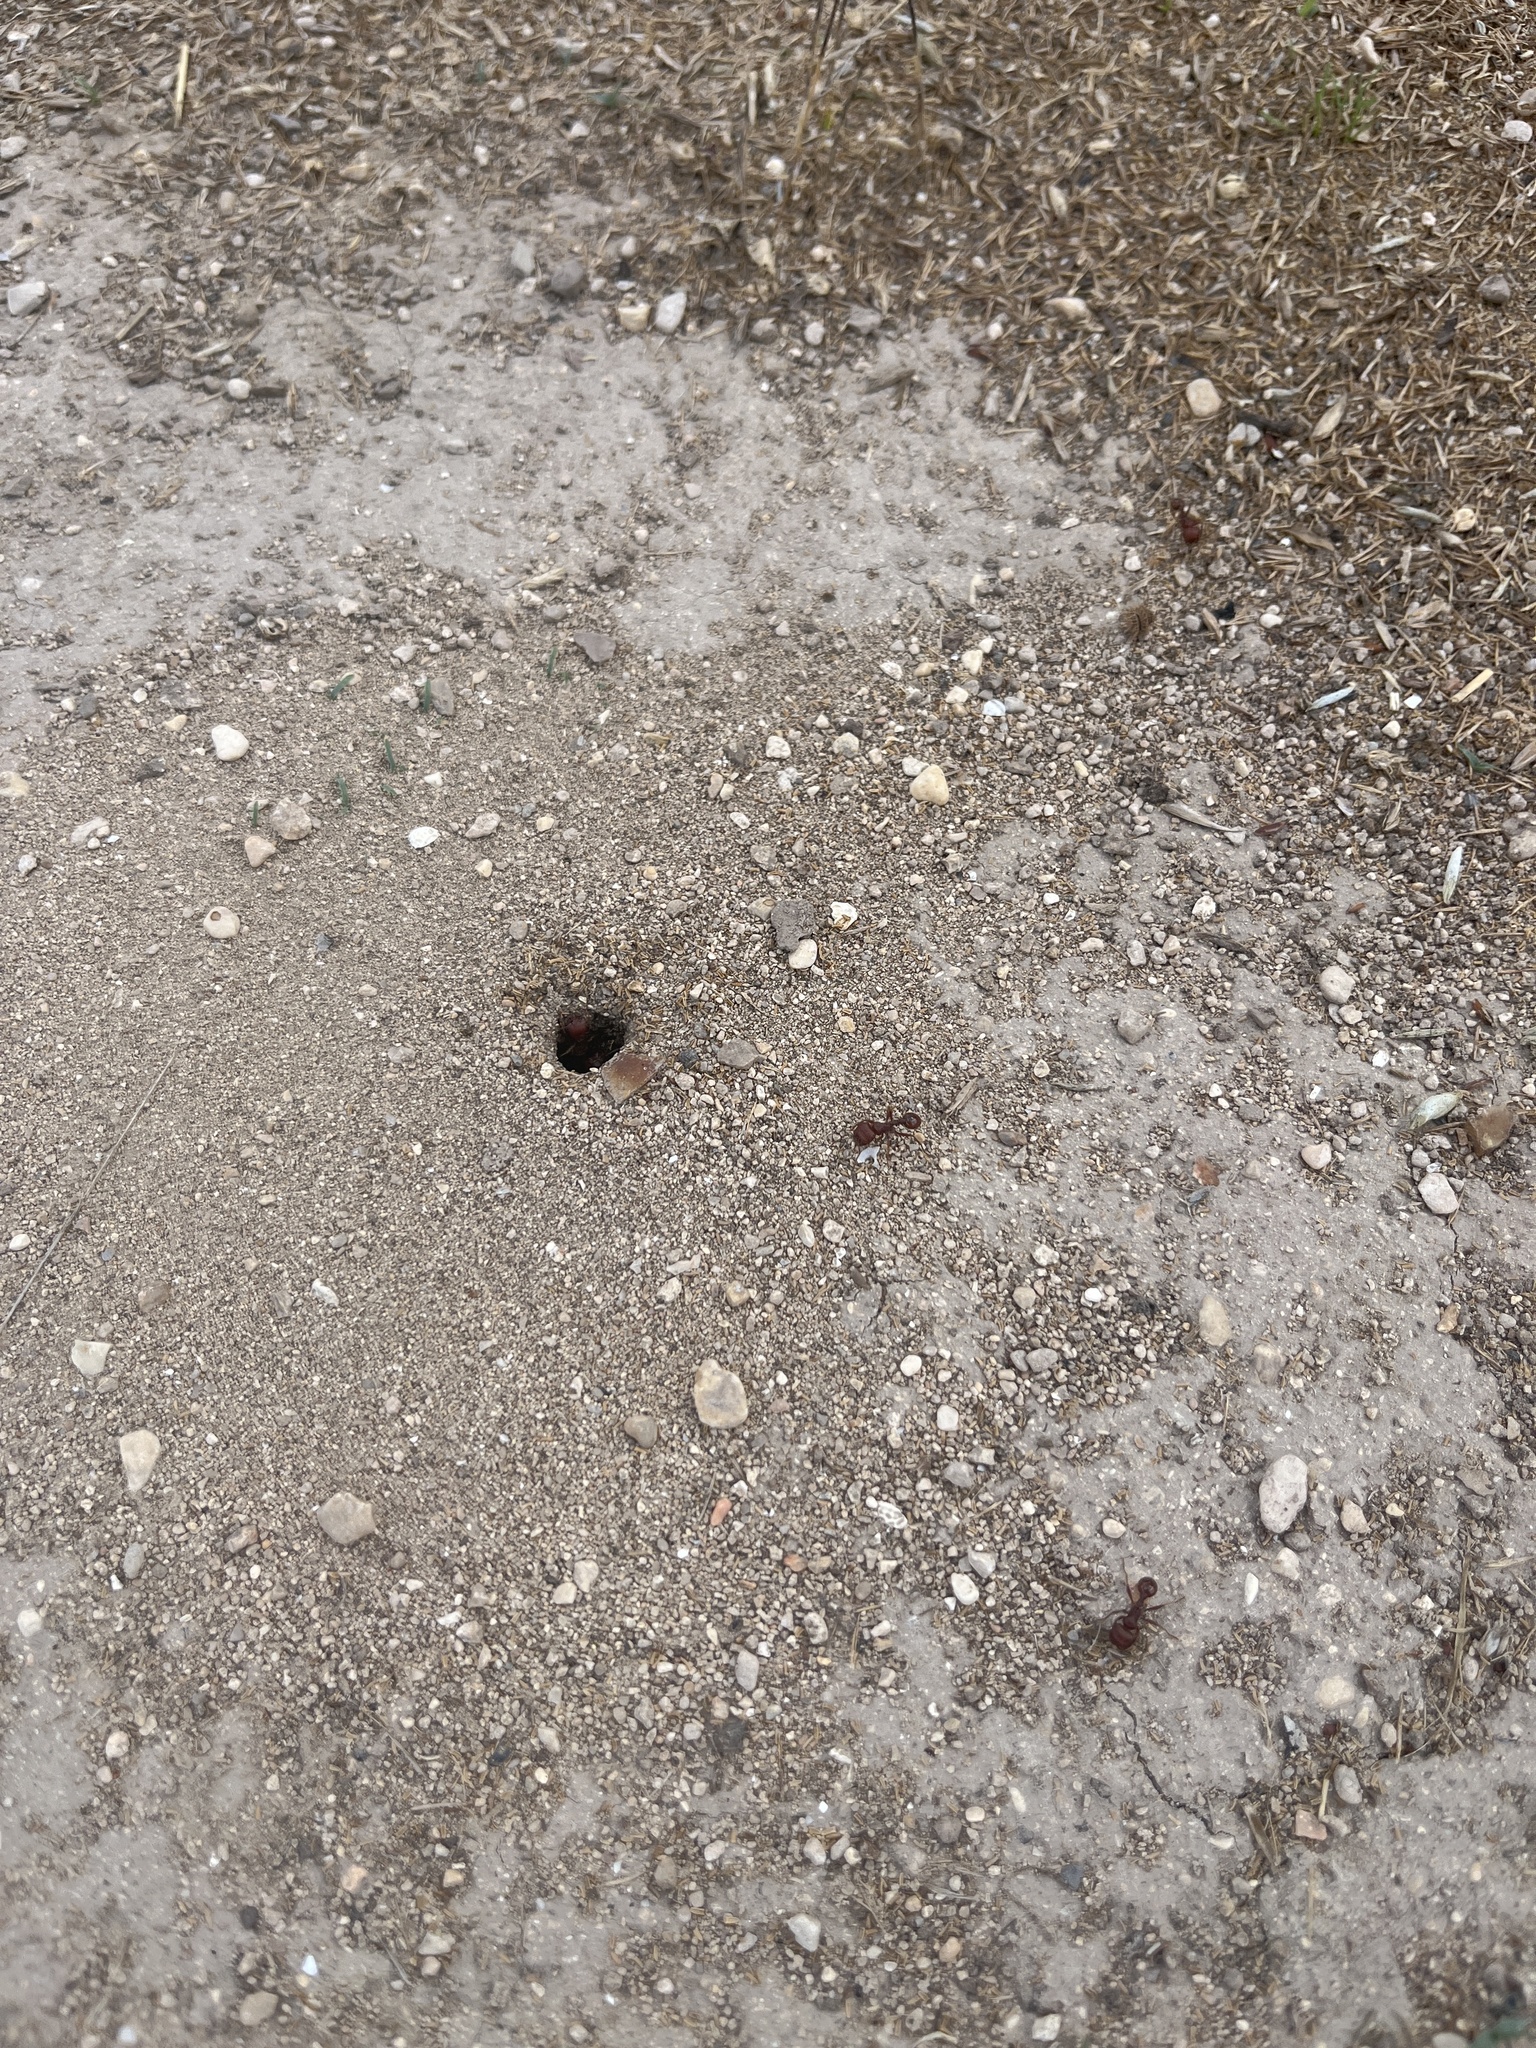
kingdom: Animalia
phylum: Arthropoda
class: Insecta
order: Hymenoptera
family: Formicidae
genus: Pogonomyrmex
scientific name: Pogonomyrmex barbatus
